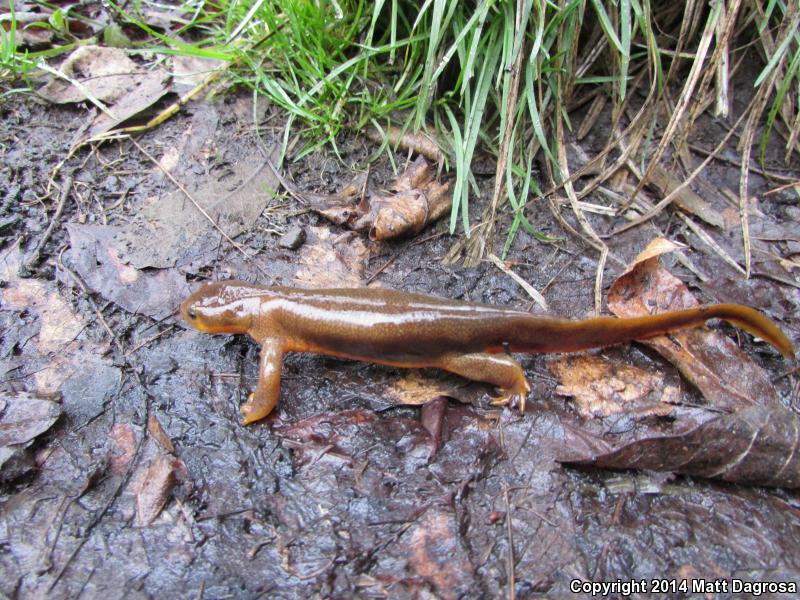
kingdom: Animalia
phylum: Chordata
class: Amphibia
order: Caudata
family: Salamandridae
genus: Taricha
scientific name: Taricha granulosa
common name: Roughskin newt
